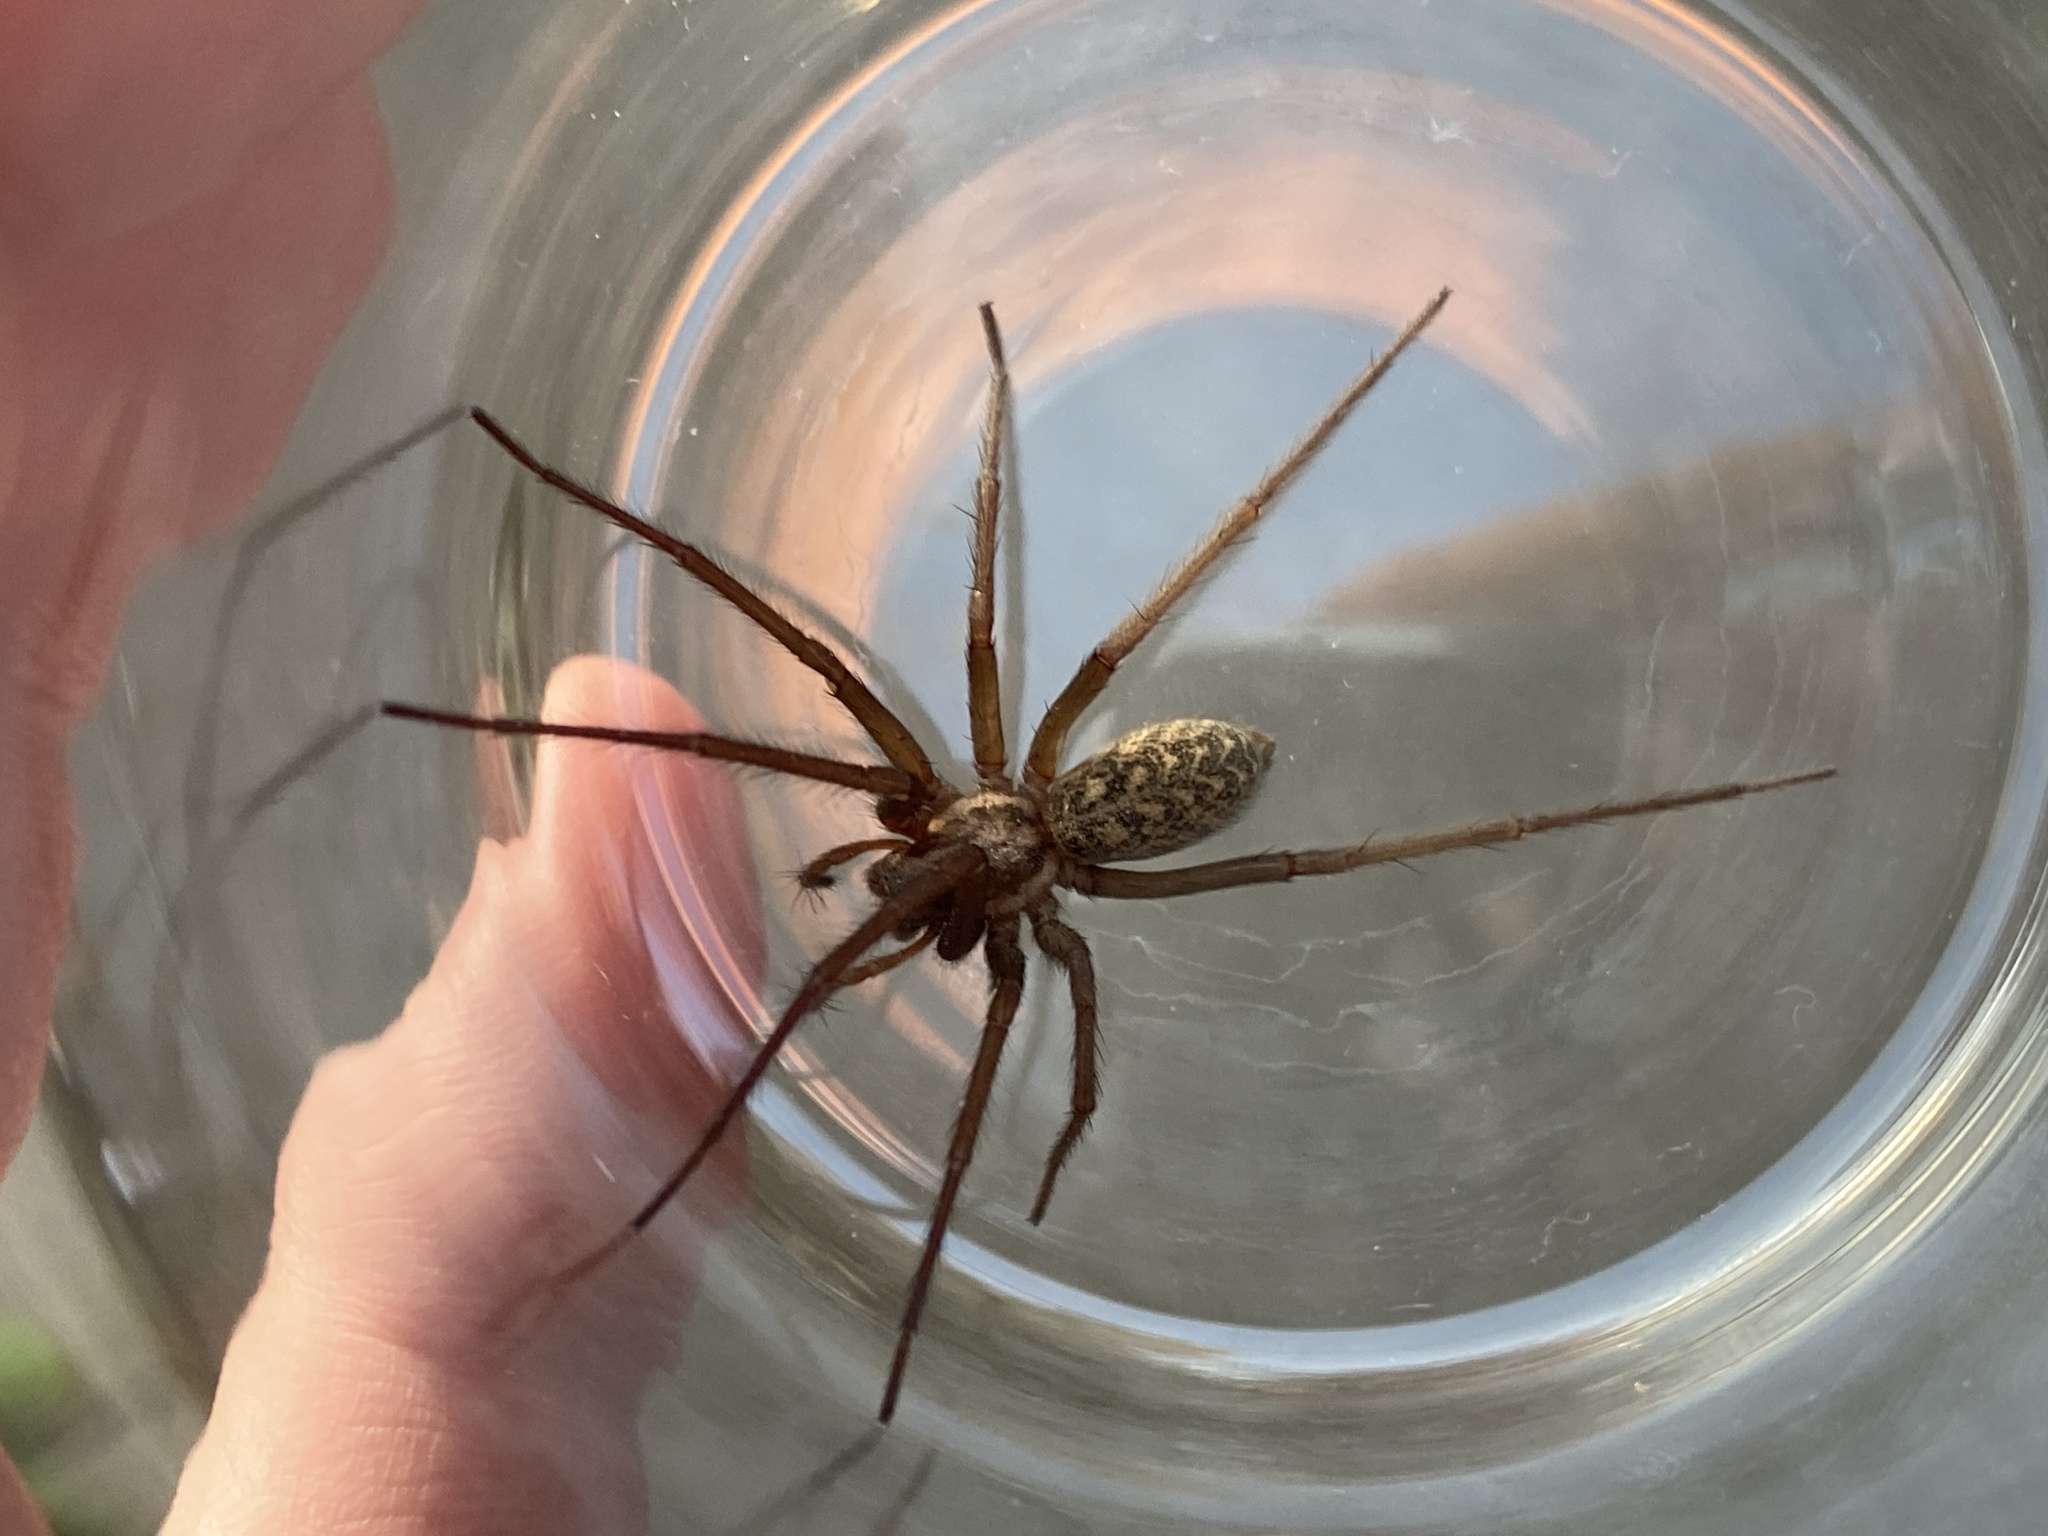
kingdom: Animalia
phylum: Arthropoda
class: Arachnida
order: Araneae
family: Agelenidae
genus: Eratigena
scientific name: Eratigena atrica
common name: Giant house spider
